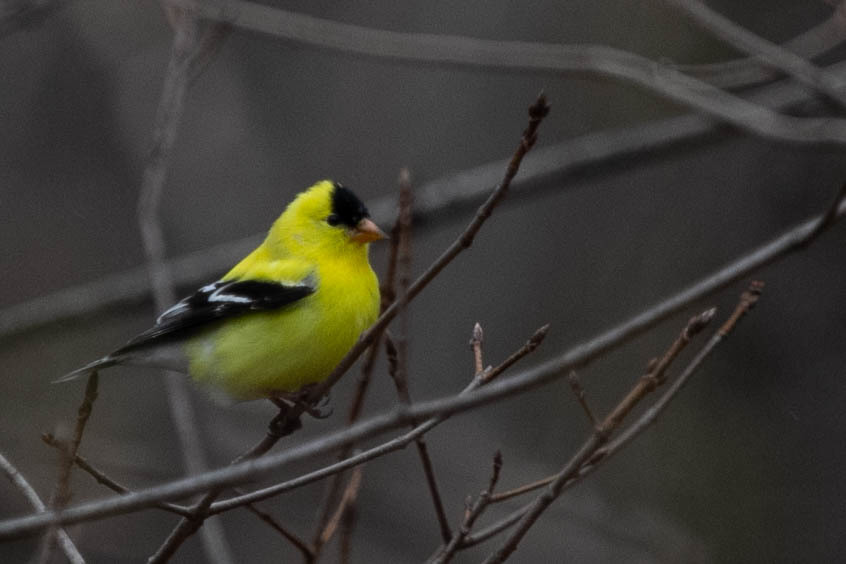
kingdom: Animalia
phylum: Chordata
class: Aves
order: Passeriformes
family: Fringillidae
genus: Spinus
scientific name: Spinus tristis
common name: American goldfinch
